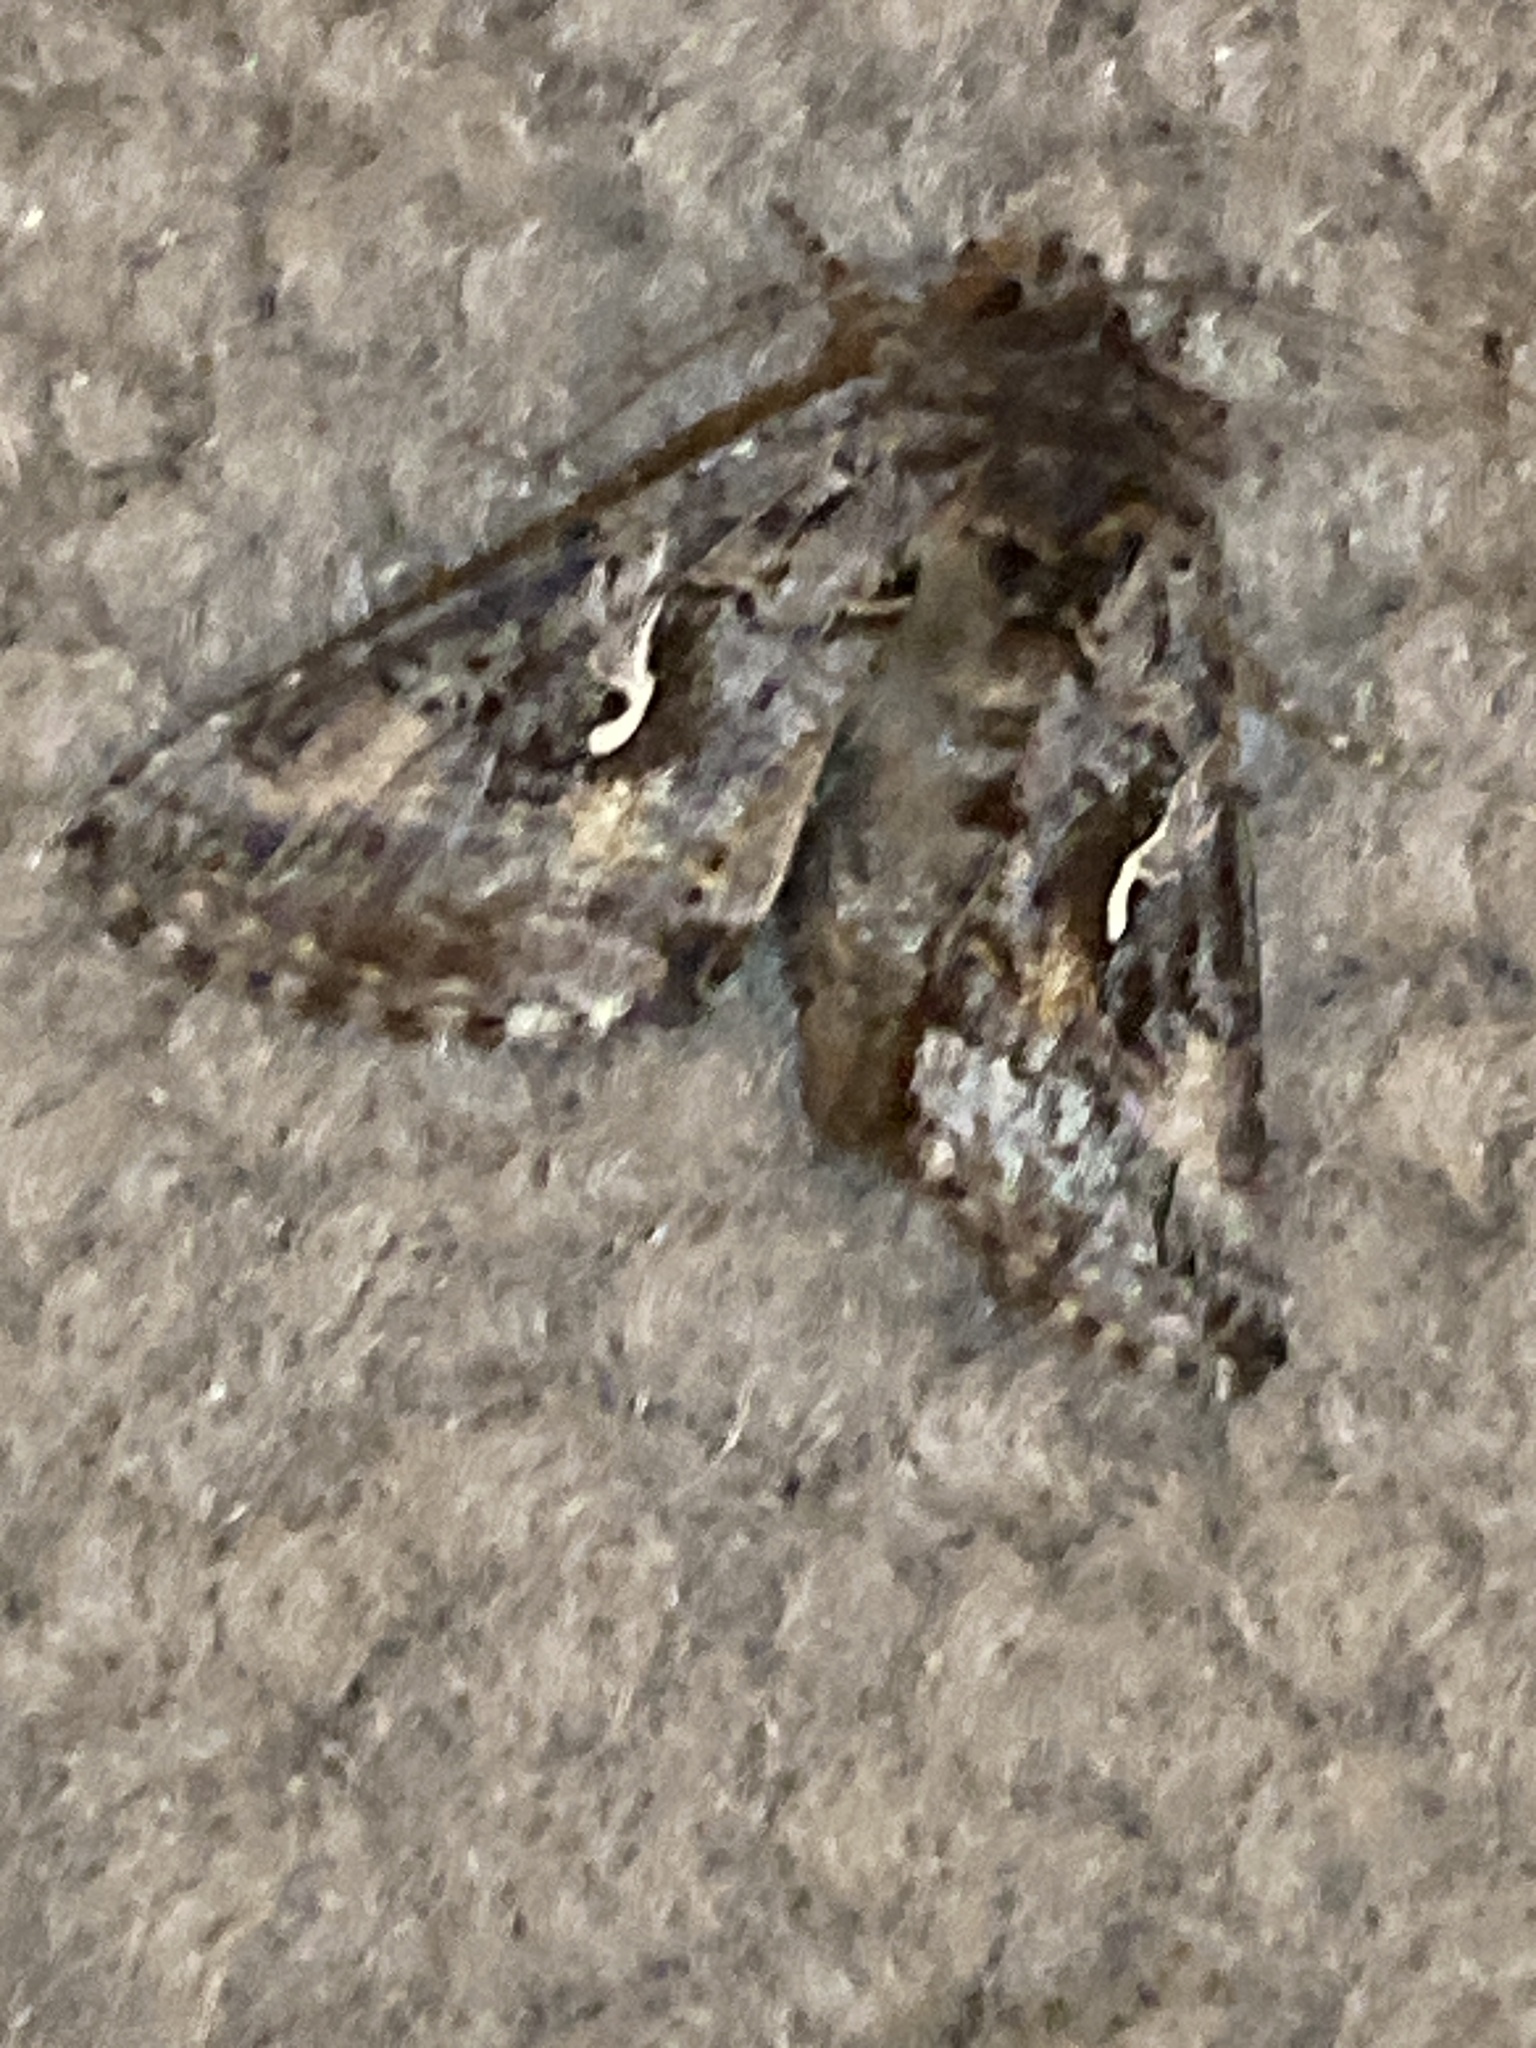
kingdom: Animalia
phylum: Arthropoda
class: Insecta
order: Lepidoptera
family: Noctuidae
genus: Autographa
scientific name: Autographa californica
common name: Alfalfa looper
